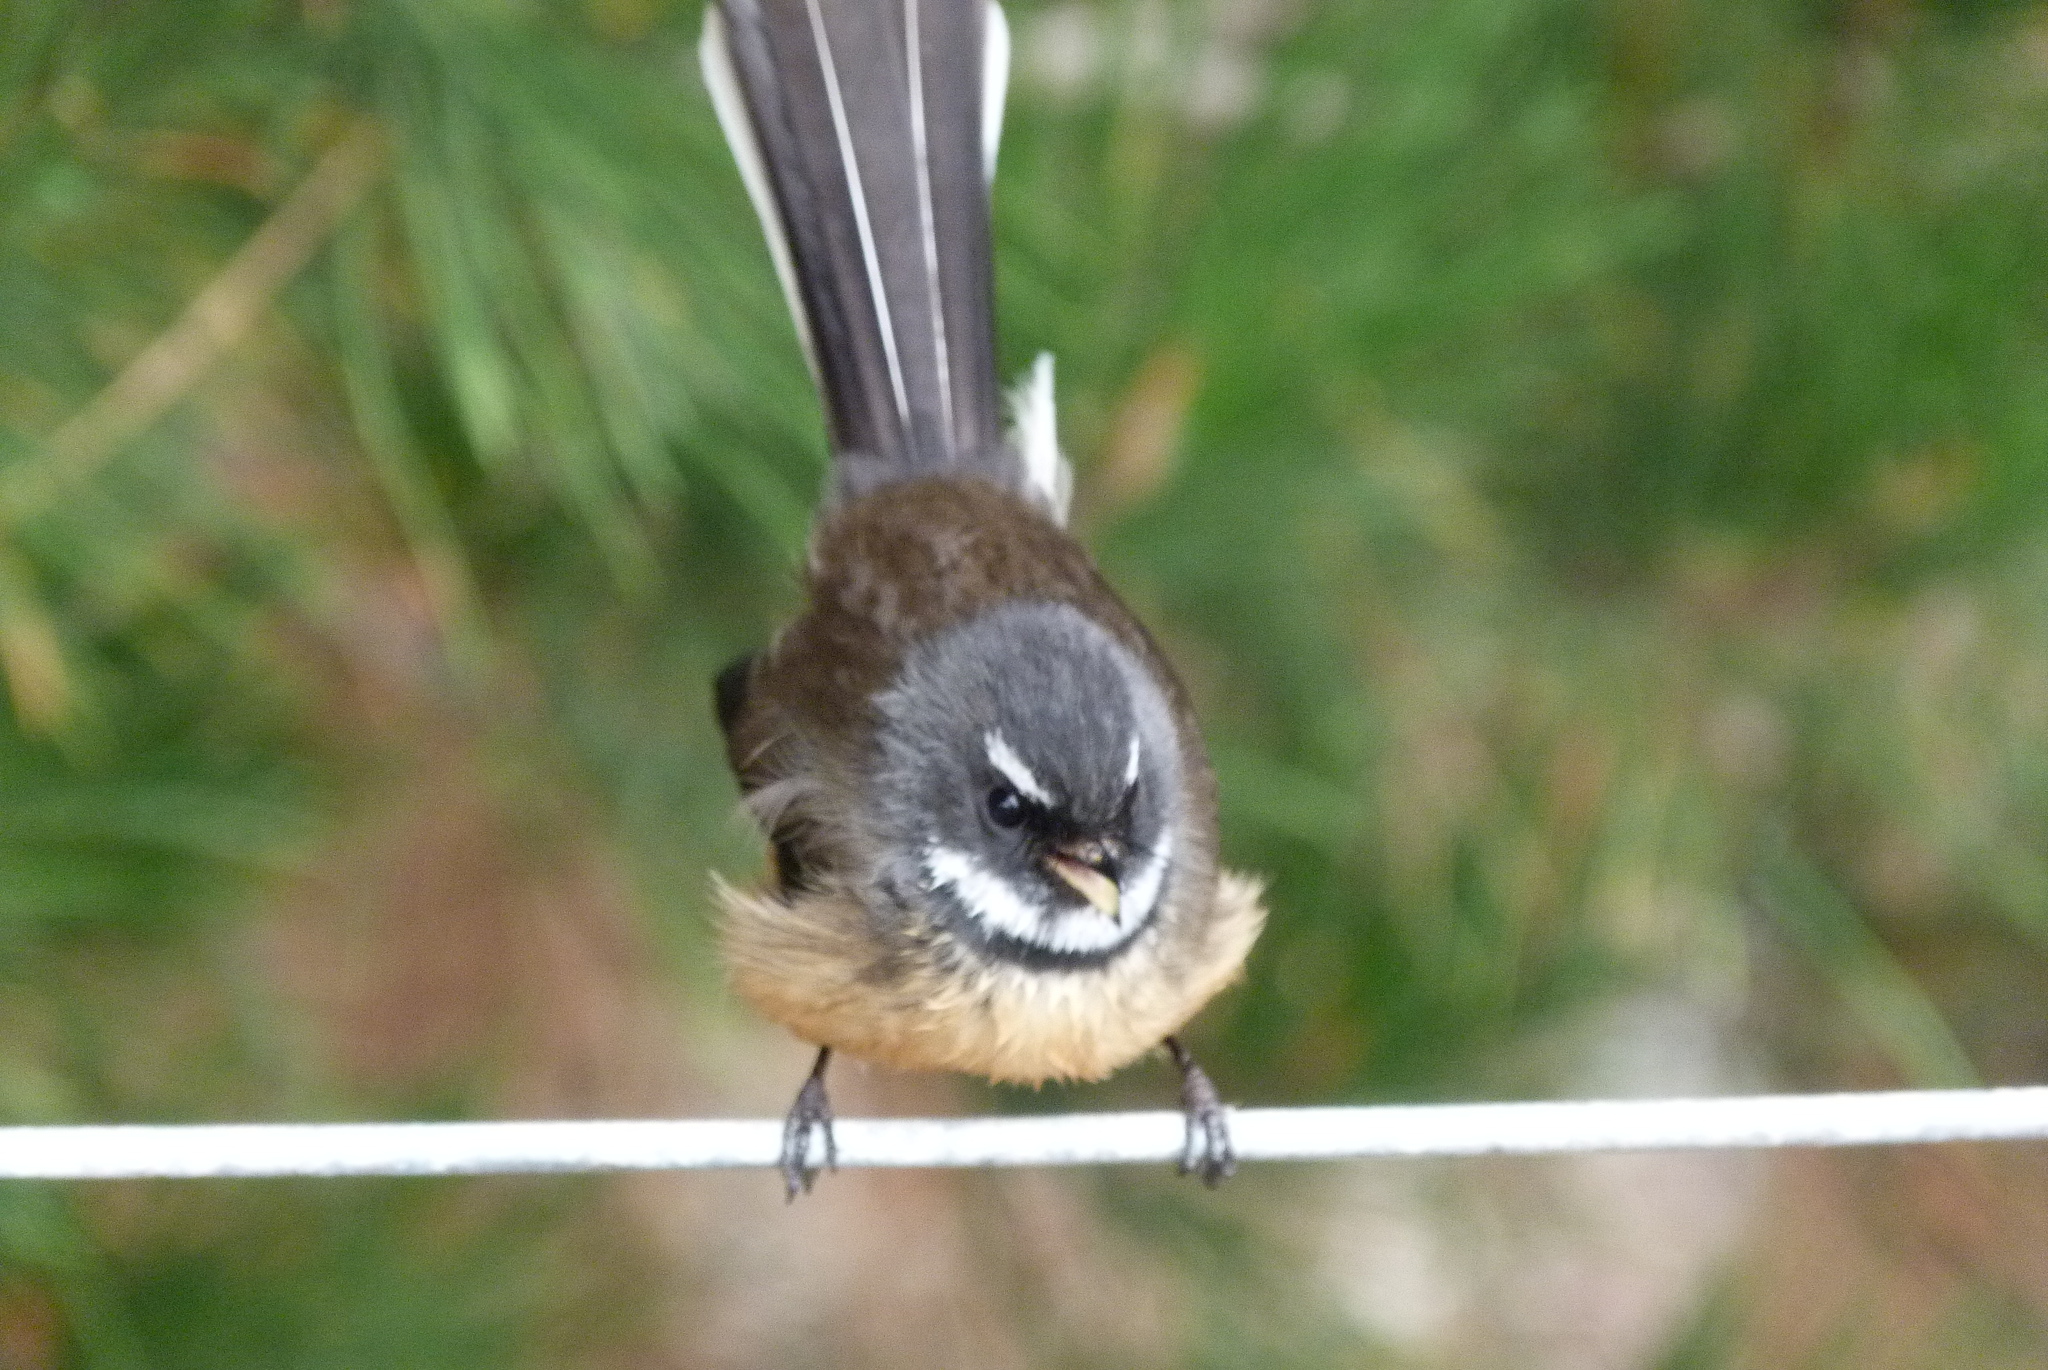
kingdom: Animalia
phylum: Chordata
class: Aves
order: Passeriformes
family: Rhipiduridae
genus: Rhipidura
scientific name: Rhipidura fuliginosa
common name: New zealand fantail
